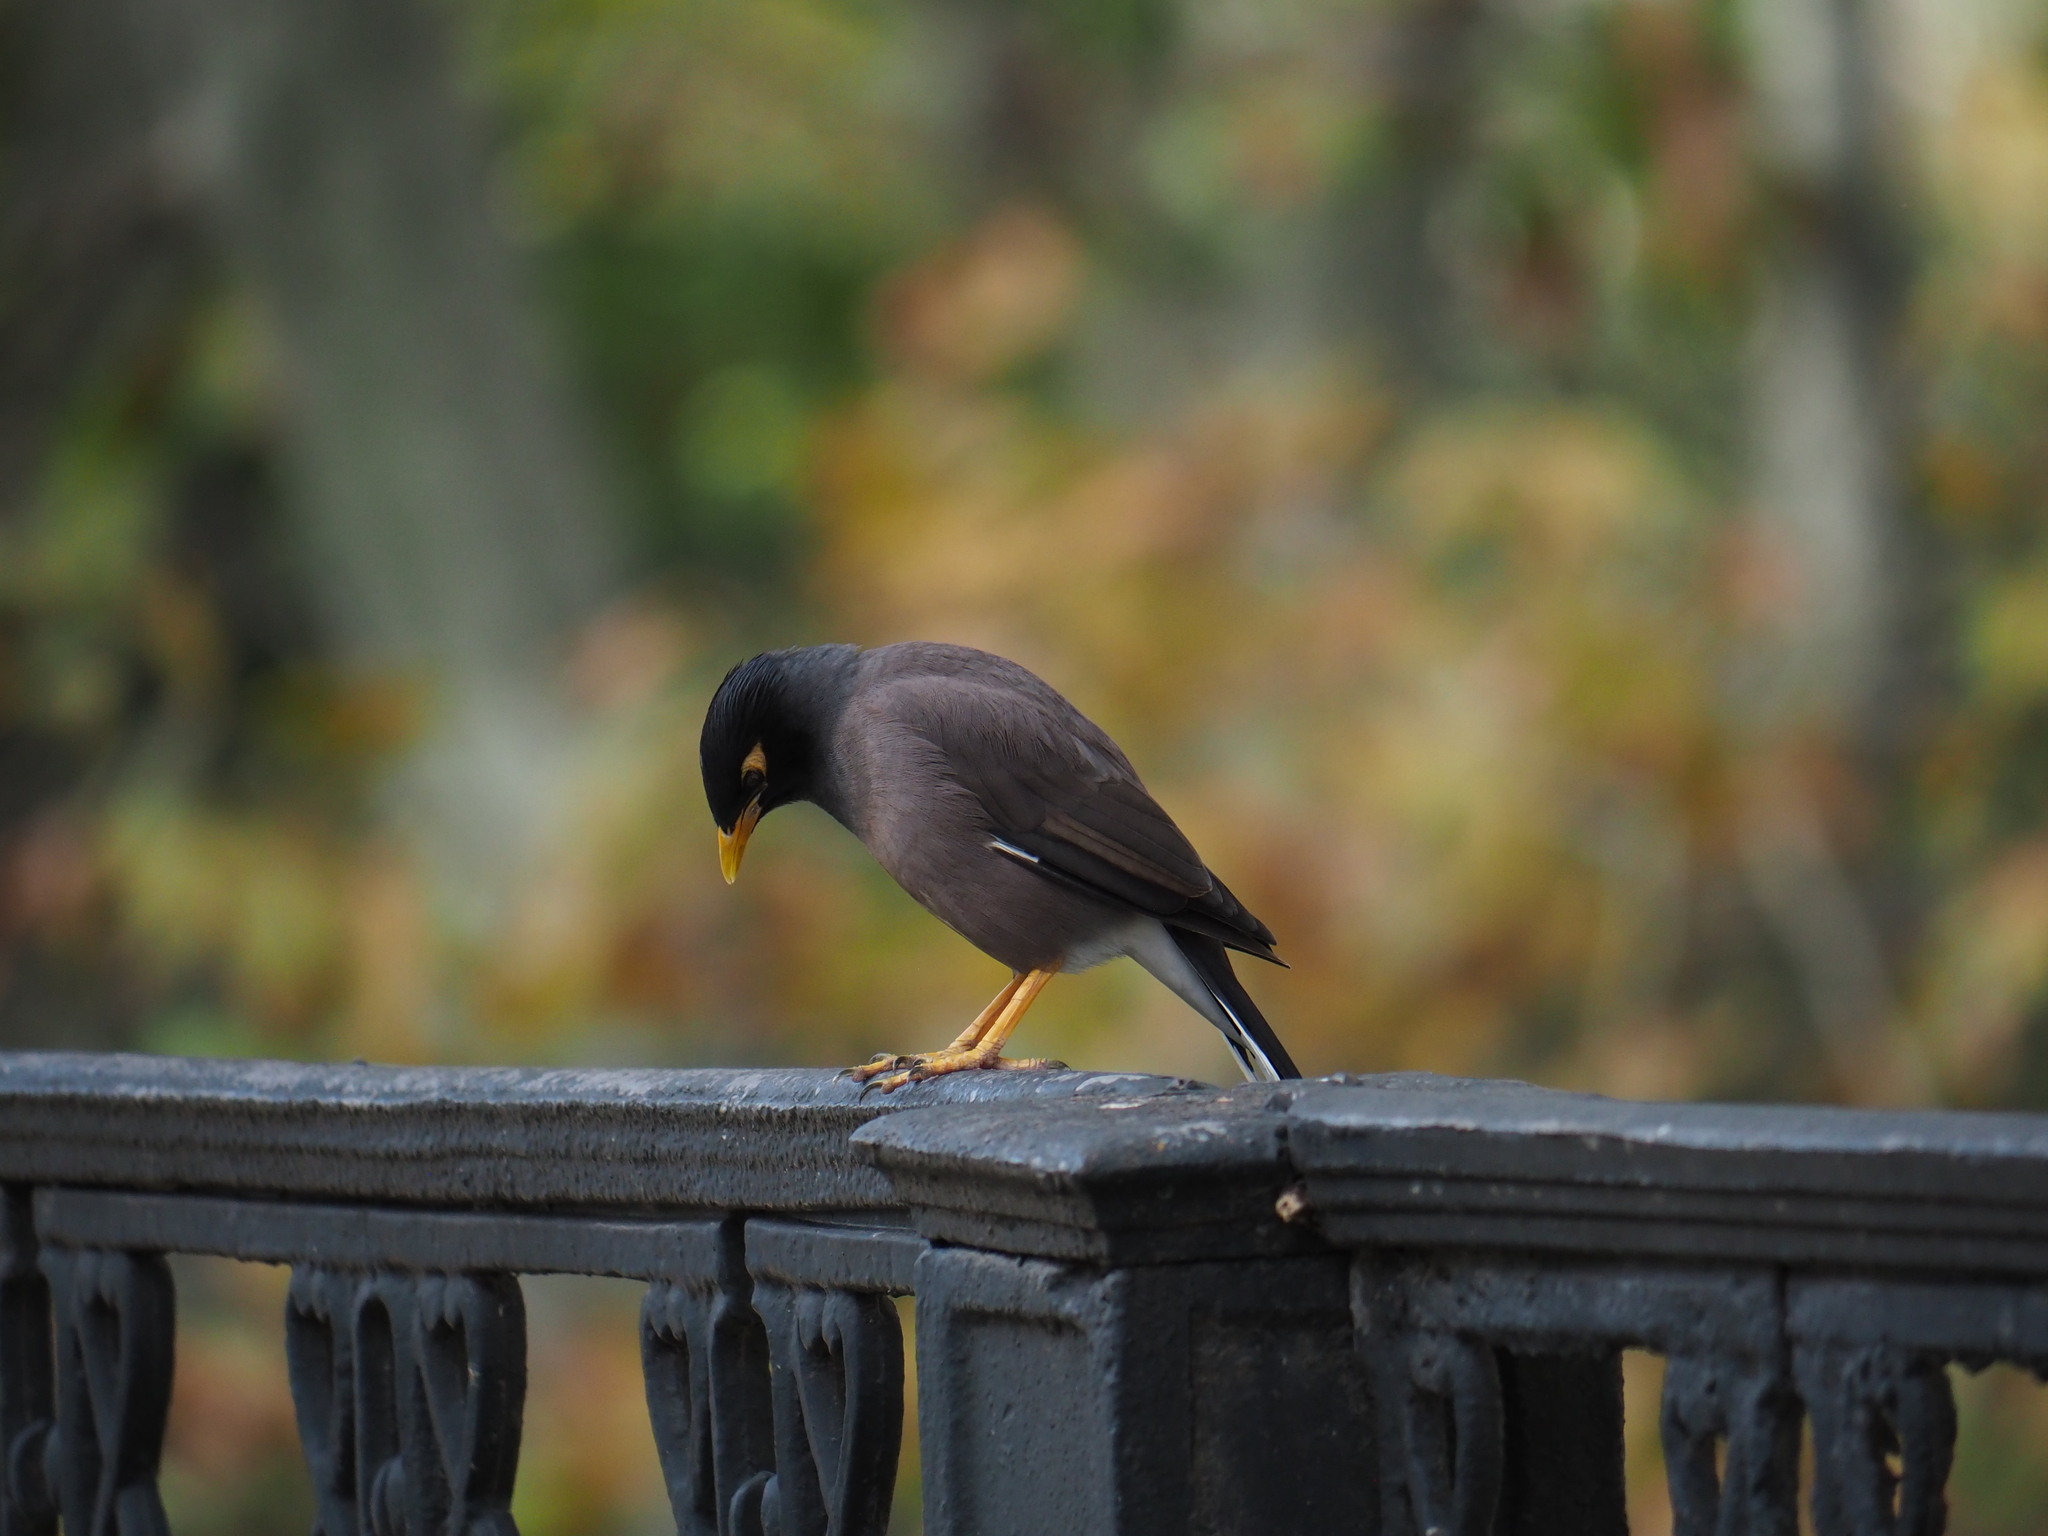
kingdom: Animalia
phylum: Chordata
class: Aves
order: Passeriformes
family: Sturnidae
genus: Acridotheres
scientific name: Acridotheres tristis
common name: Common myna
